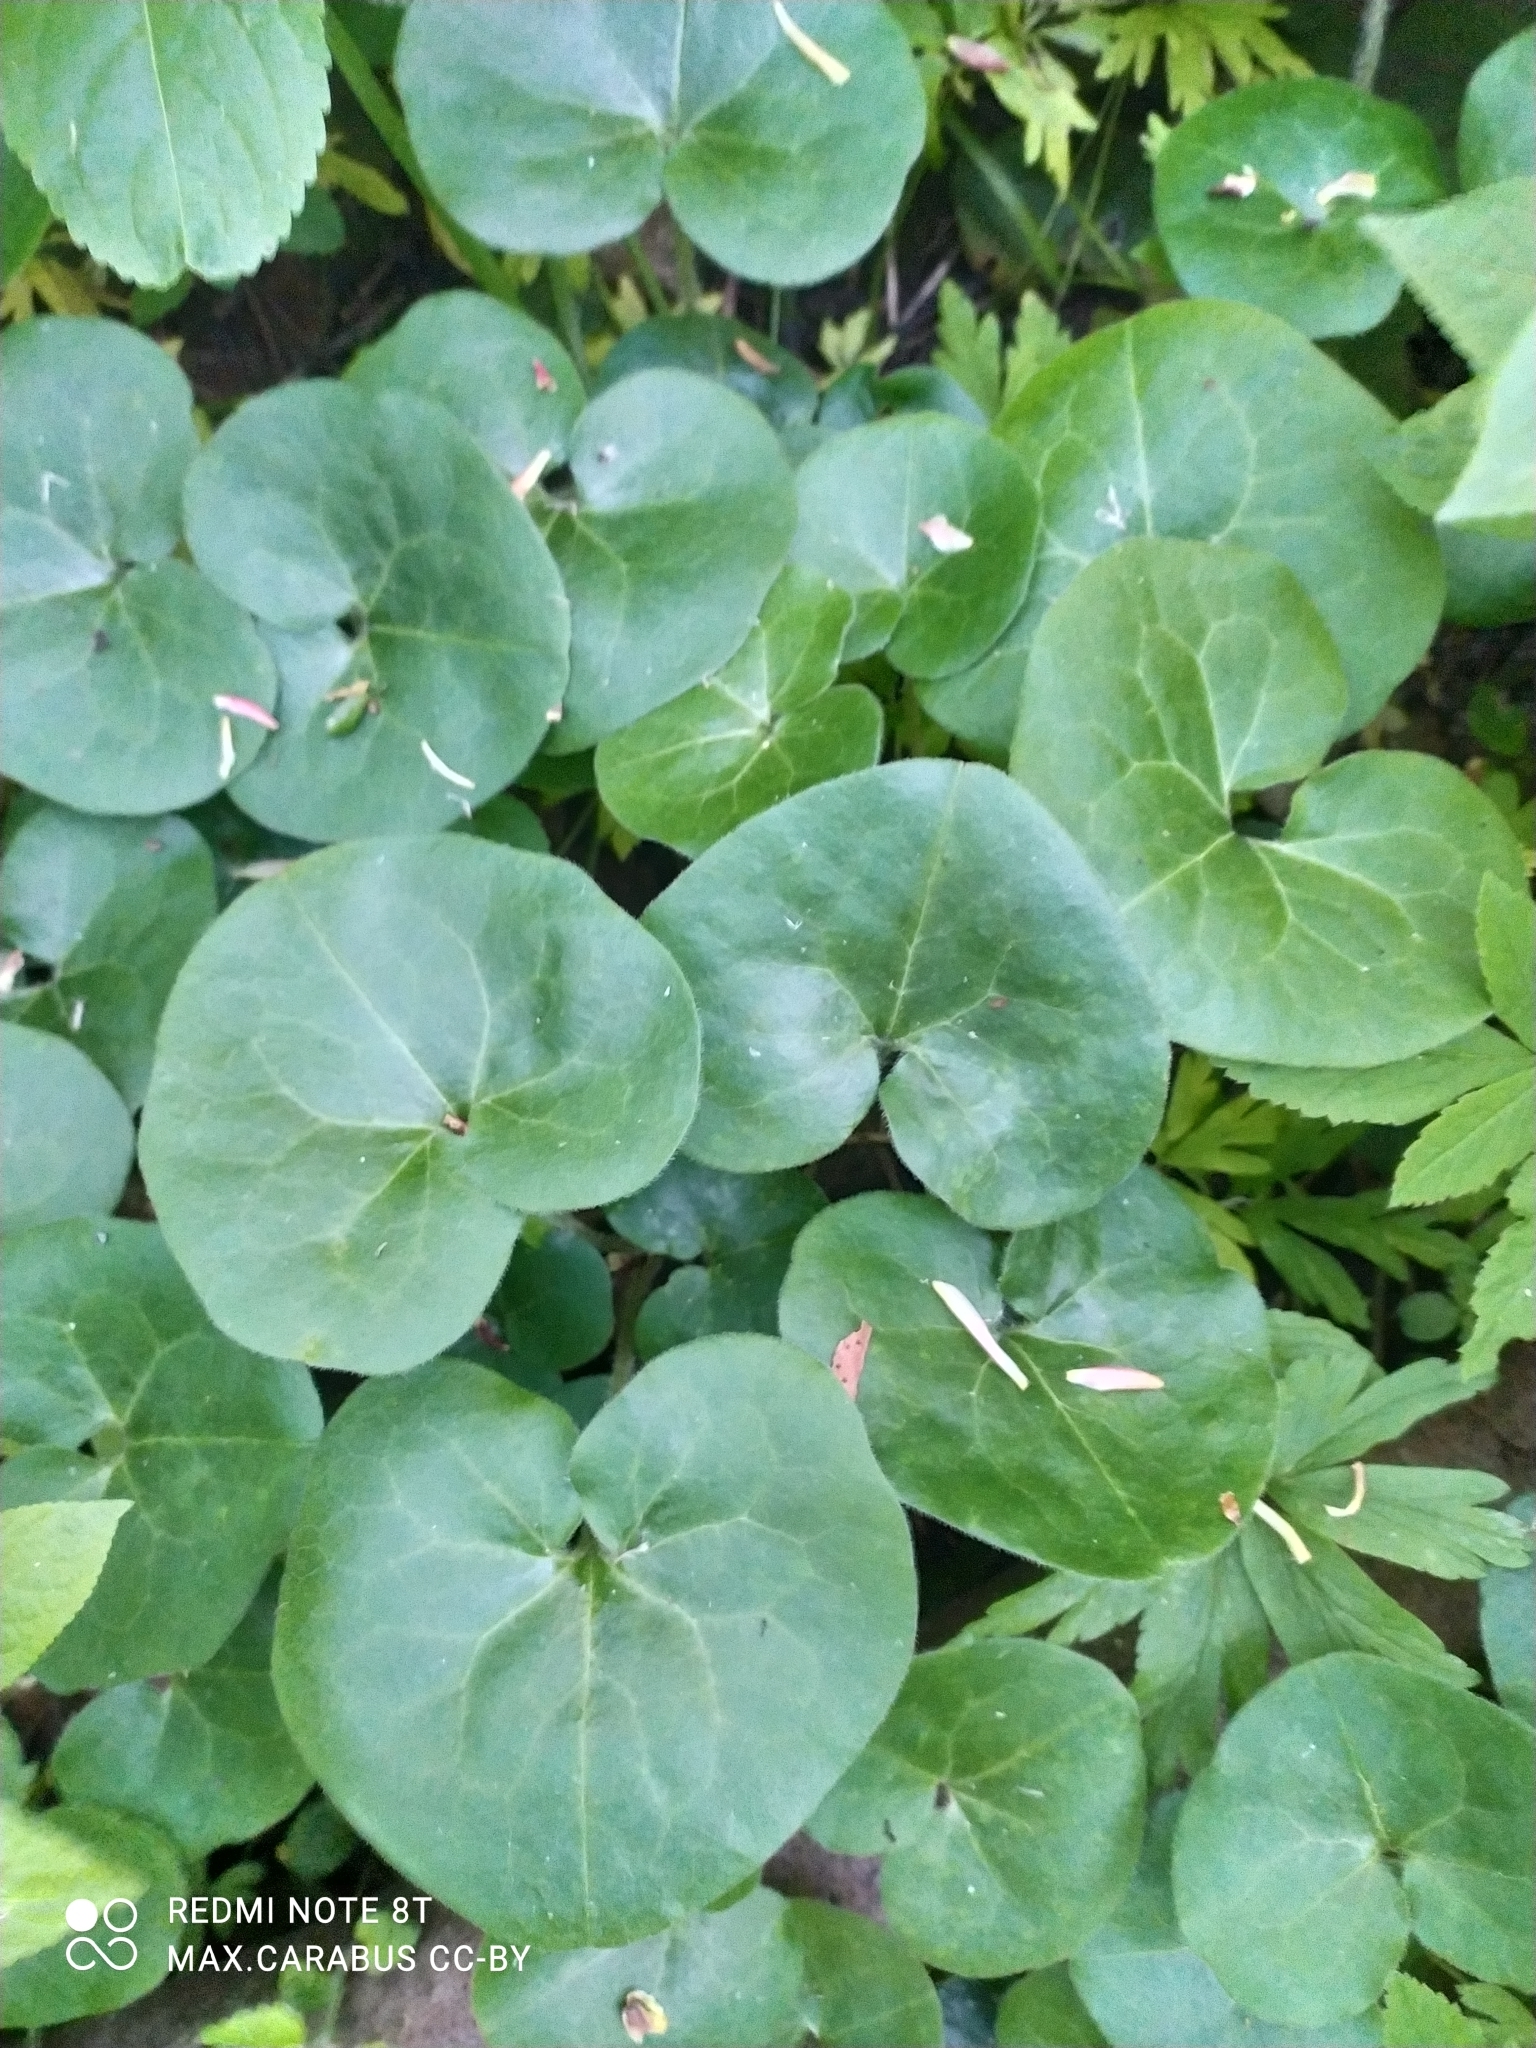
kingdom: Plantae
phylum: Tracheophyta
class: Magnoliopsida
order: Piperales
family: Aristolochiaceae
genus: Asarum
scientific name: Asarum europaeum
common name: Asarabacca
